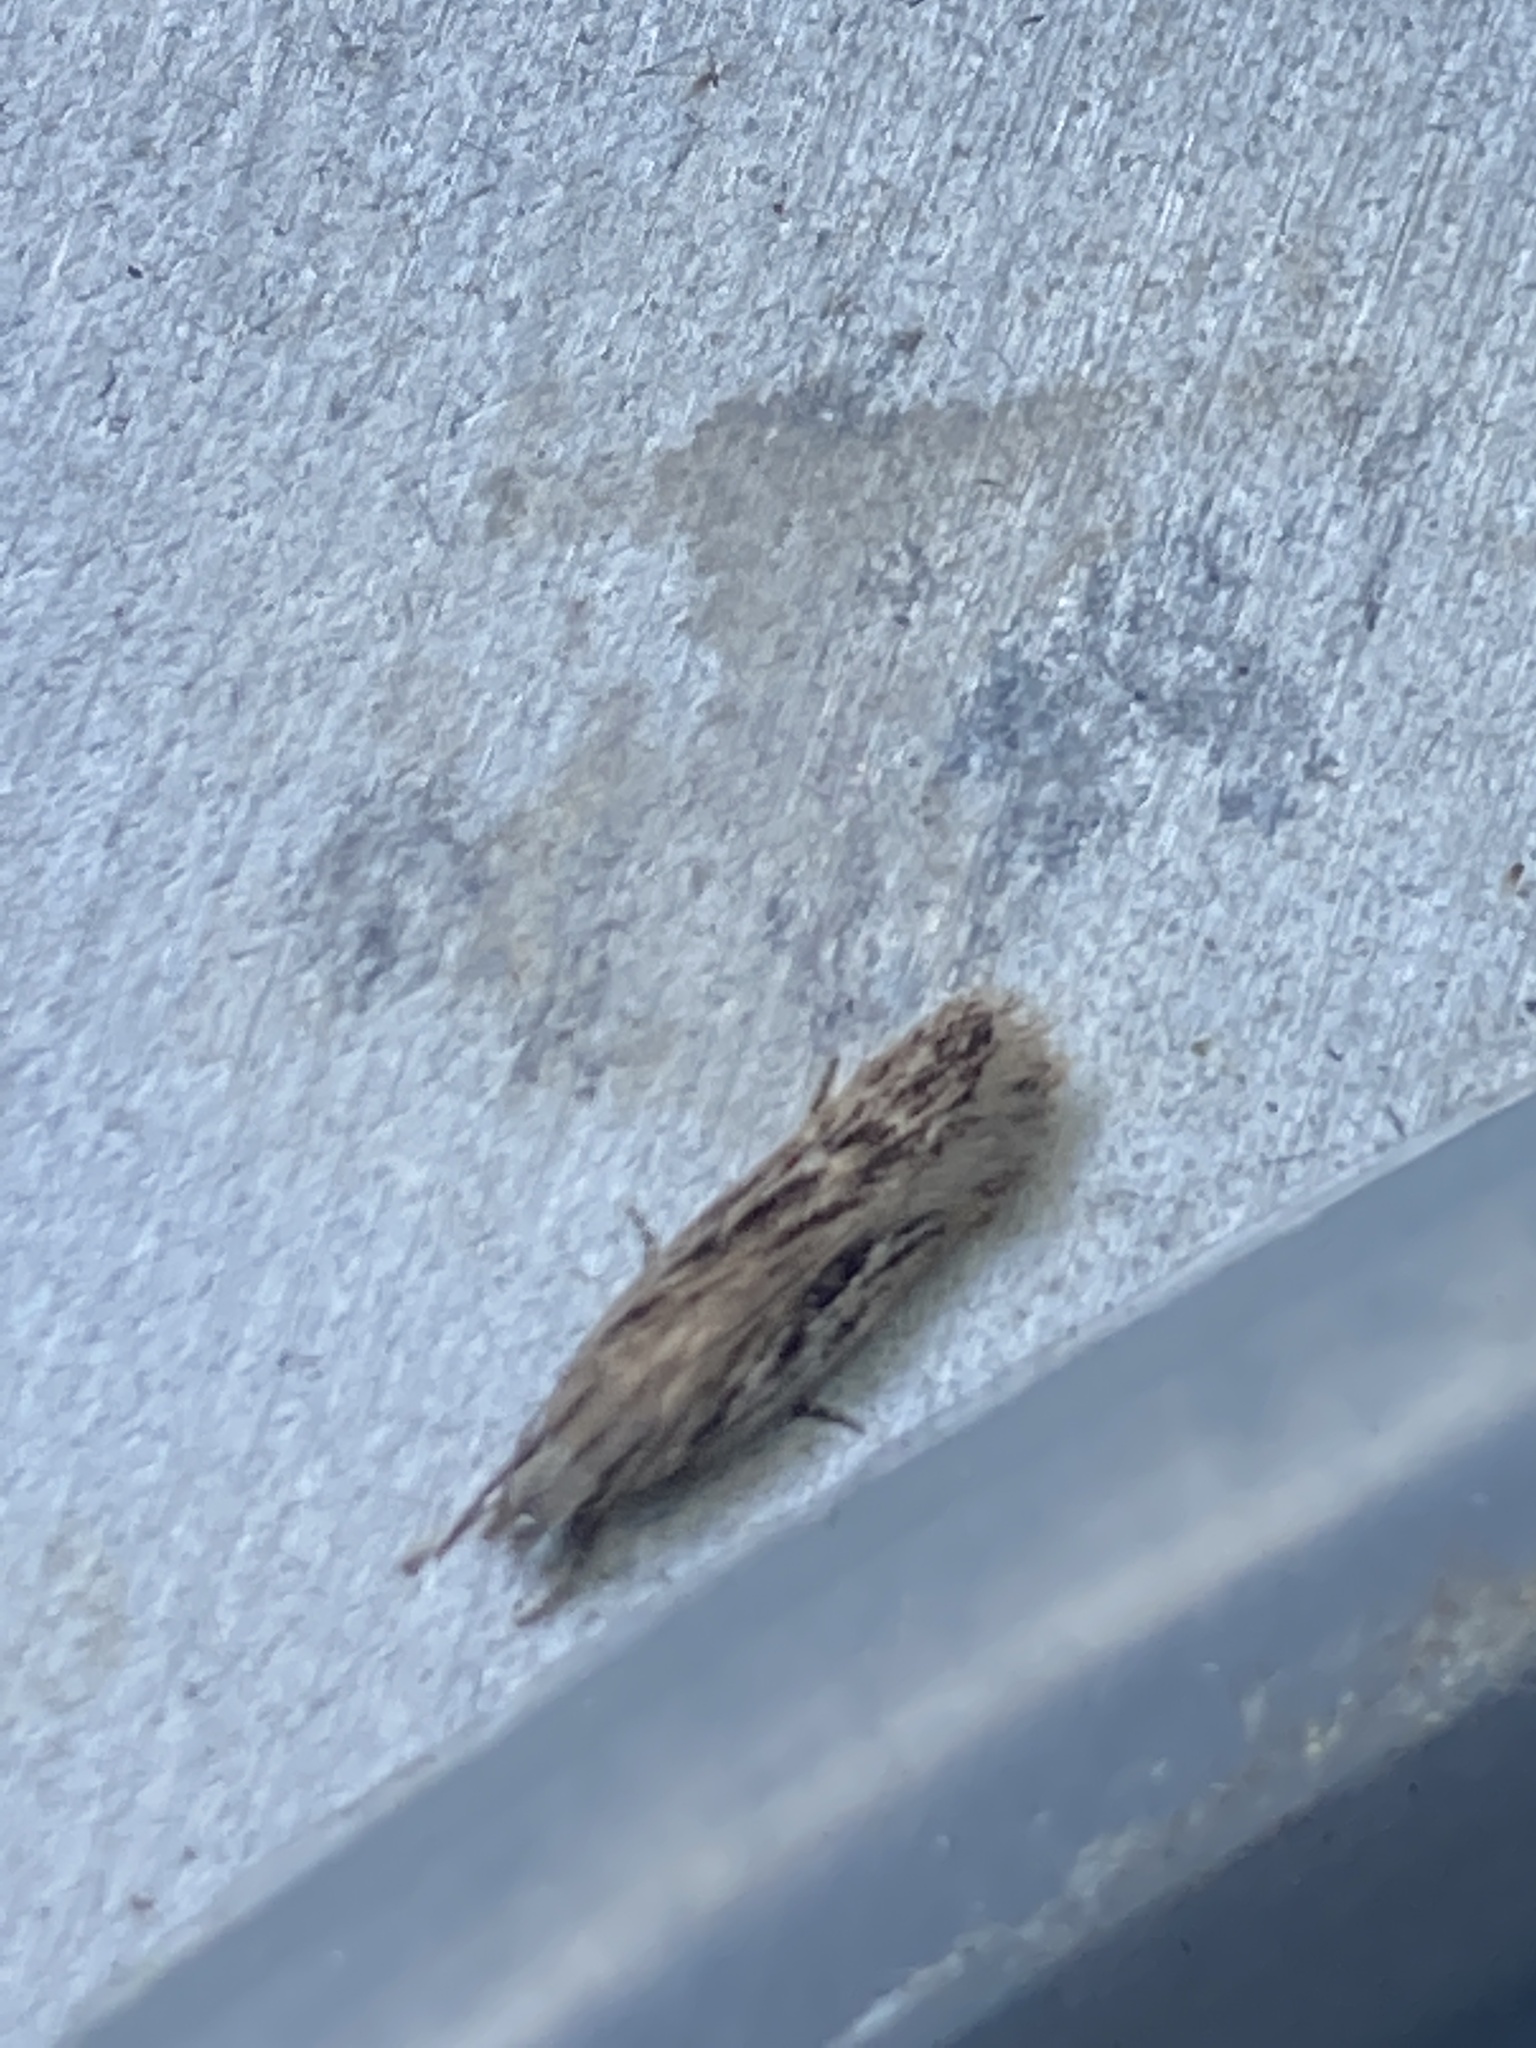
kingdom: Animalia
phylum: Arthropoda
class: Insecta
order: Lepidoptera
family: Gelechiidae
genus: Gelechia
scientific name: Gelechia senticetella
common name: Cypress groundling
